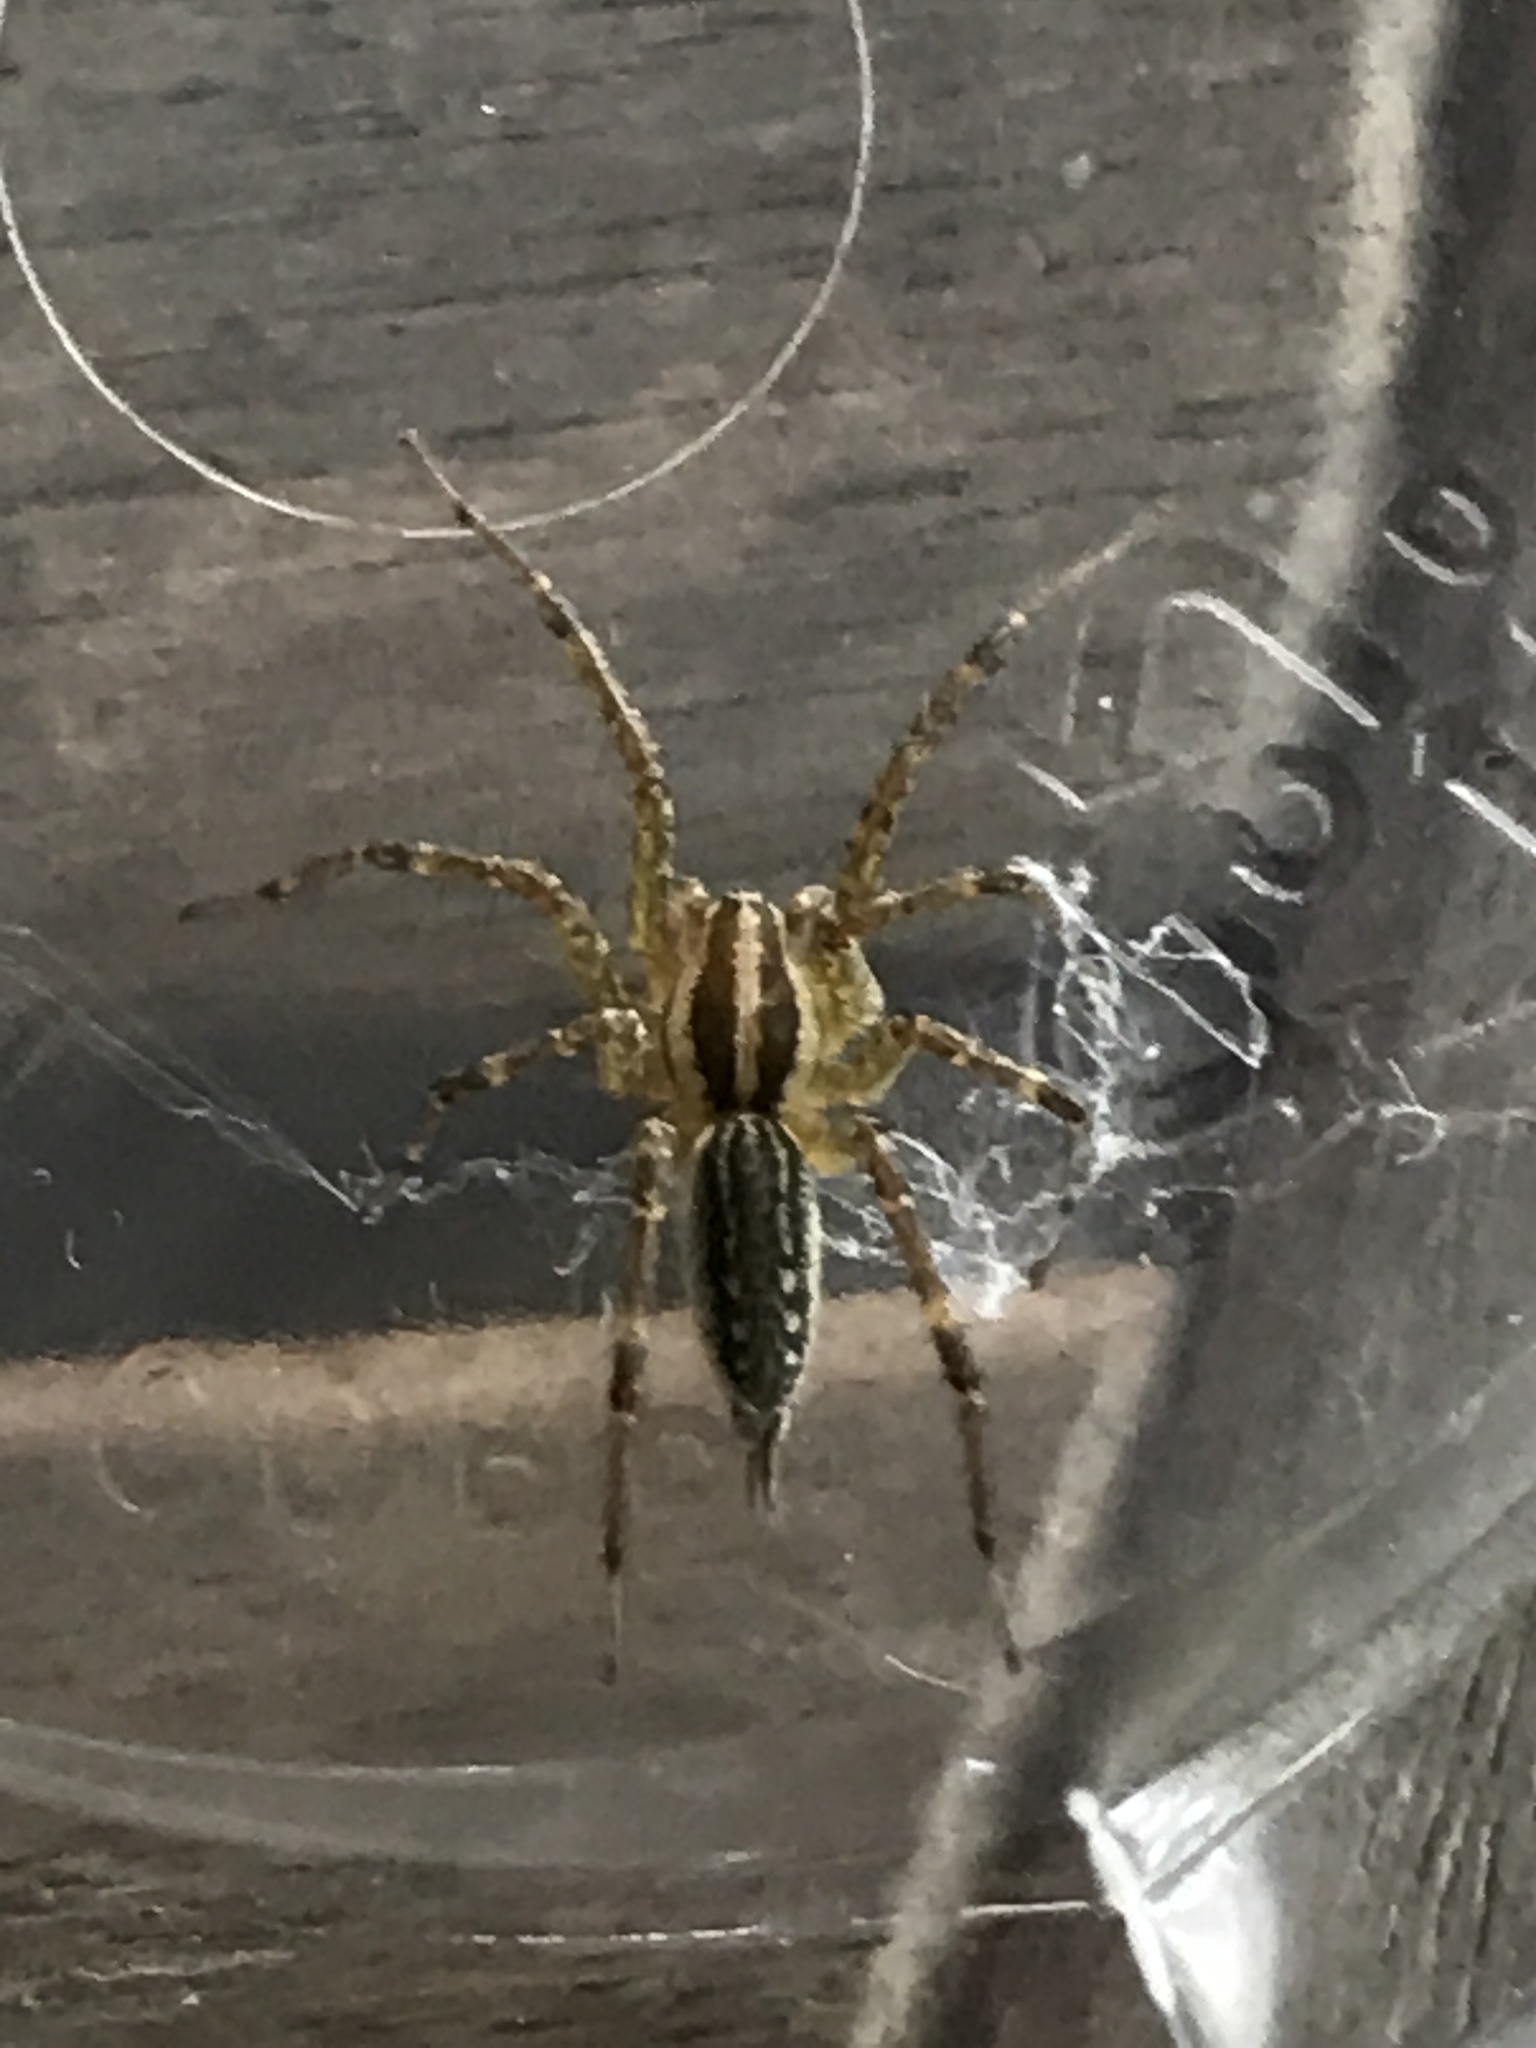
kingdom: Animalia
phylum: Arthropoda
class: Arachnida
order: Araneae
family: Agelenidae
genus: Agelenopsis
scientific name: Agelenopsis
